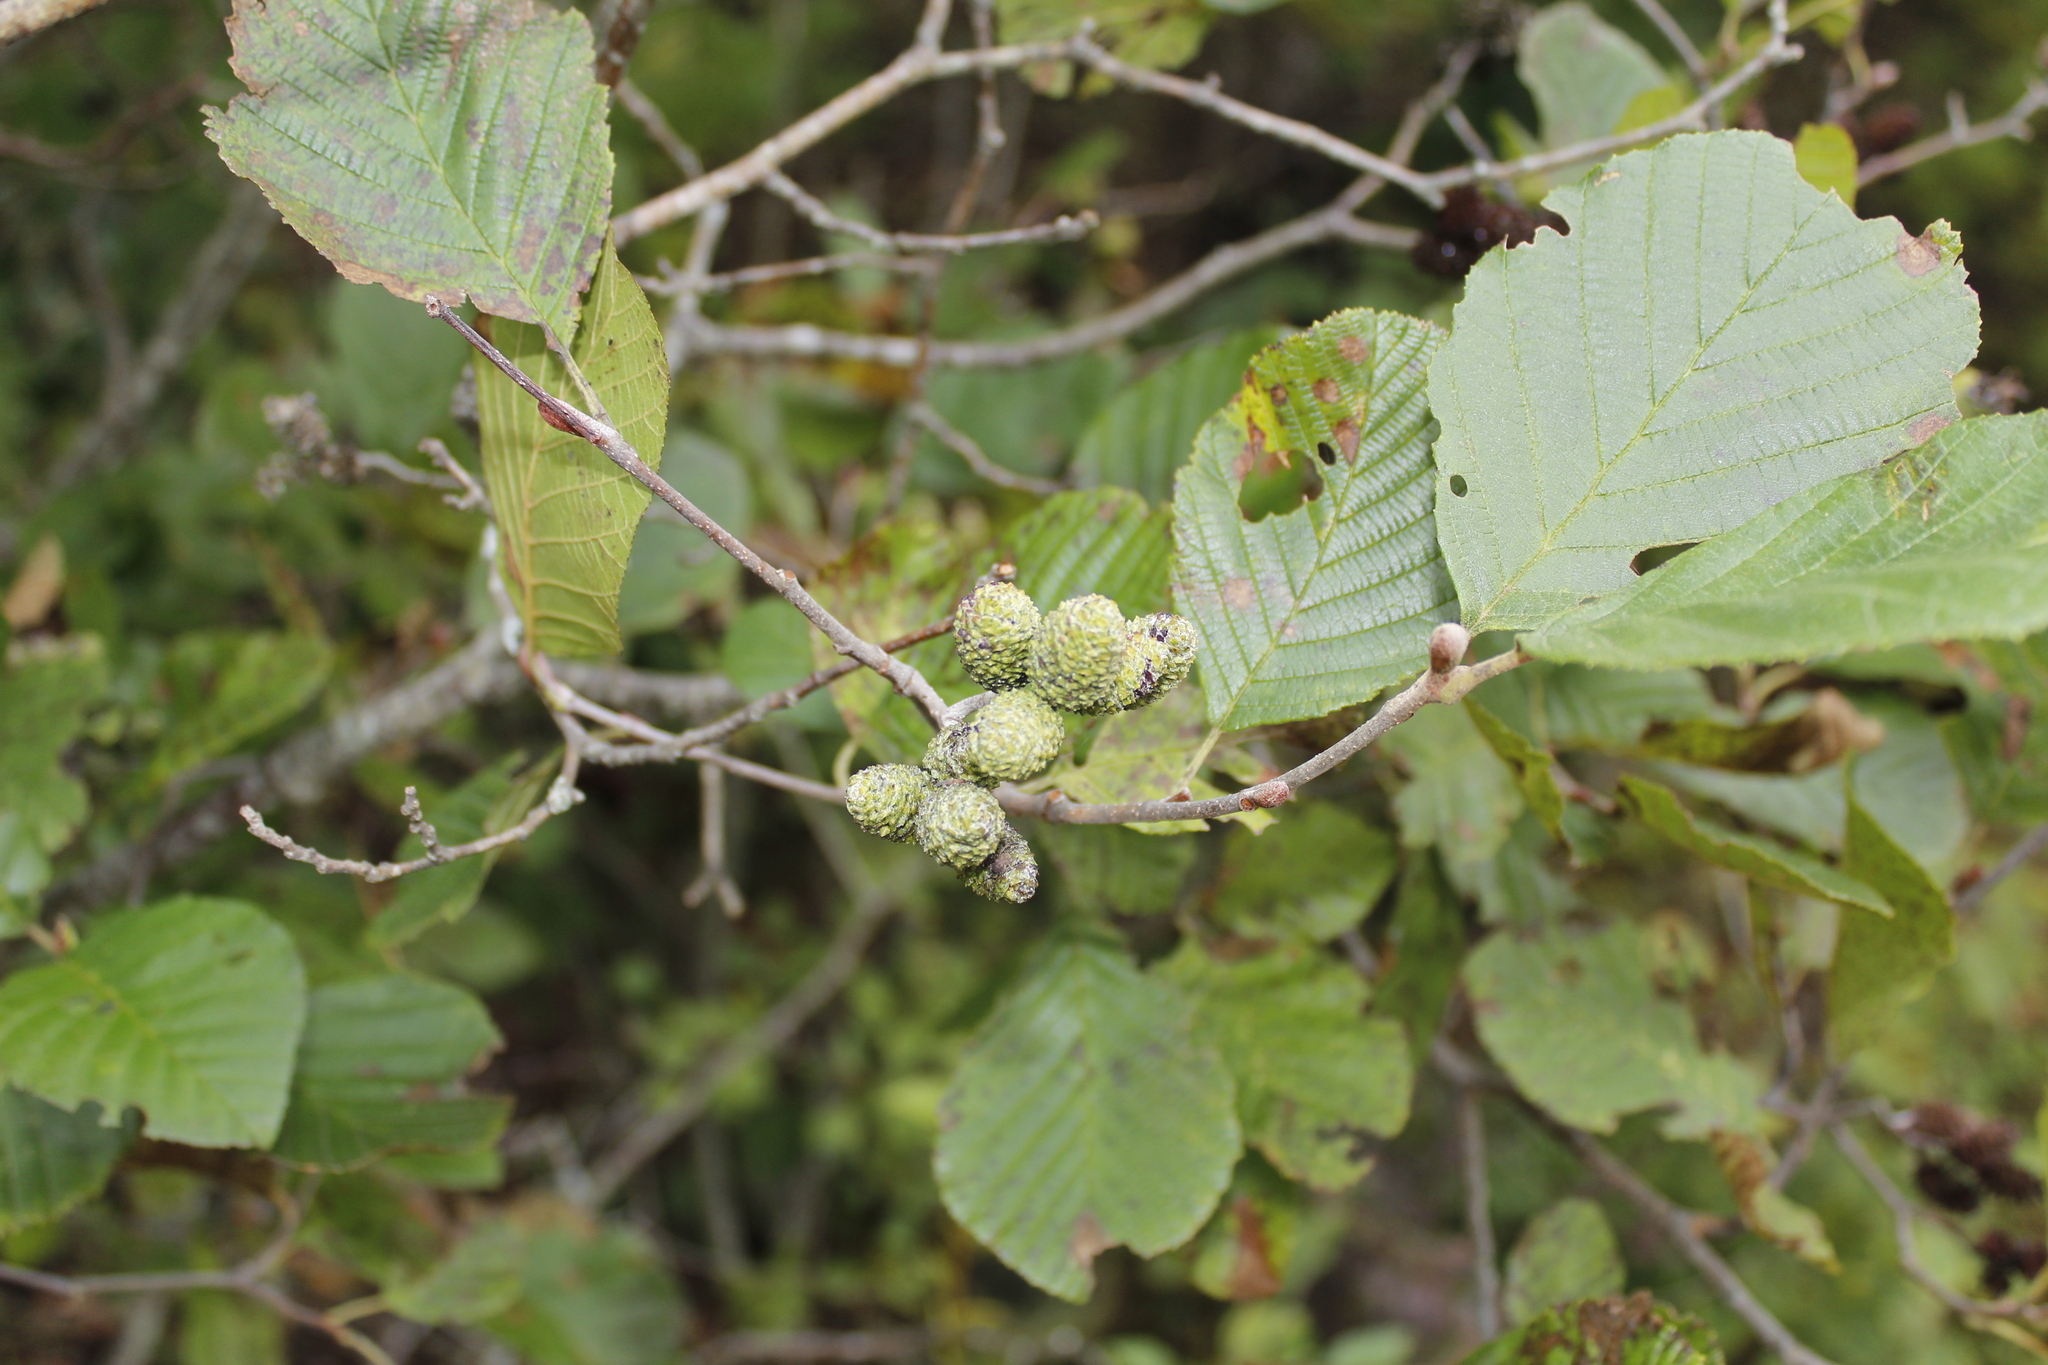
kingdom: Plantae
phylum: Tracheophyta
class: Magnoliopsida
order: Fagales
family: Betulaceae
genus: Alnus
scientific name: Alnus incana
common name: Grey alder
